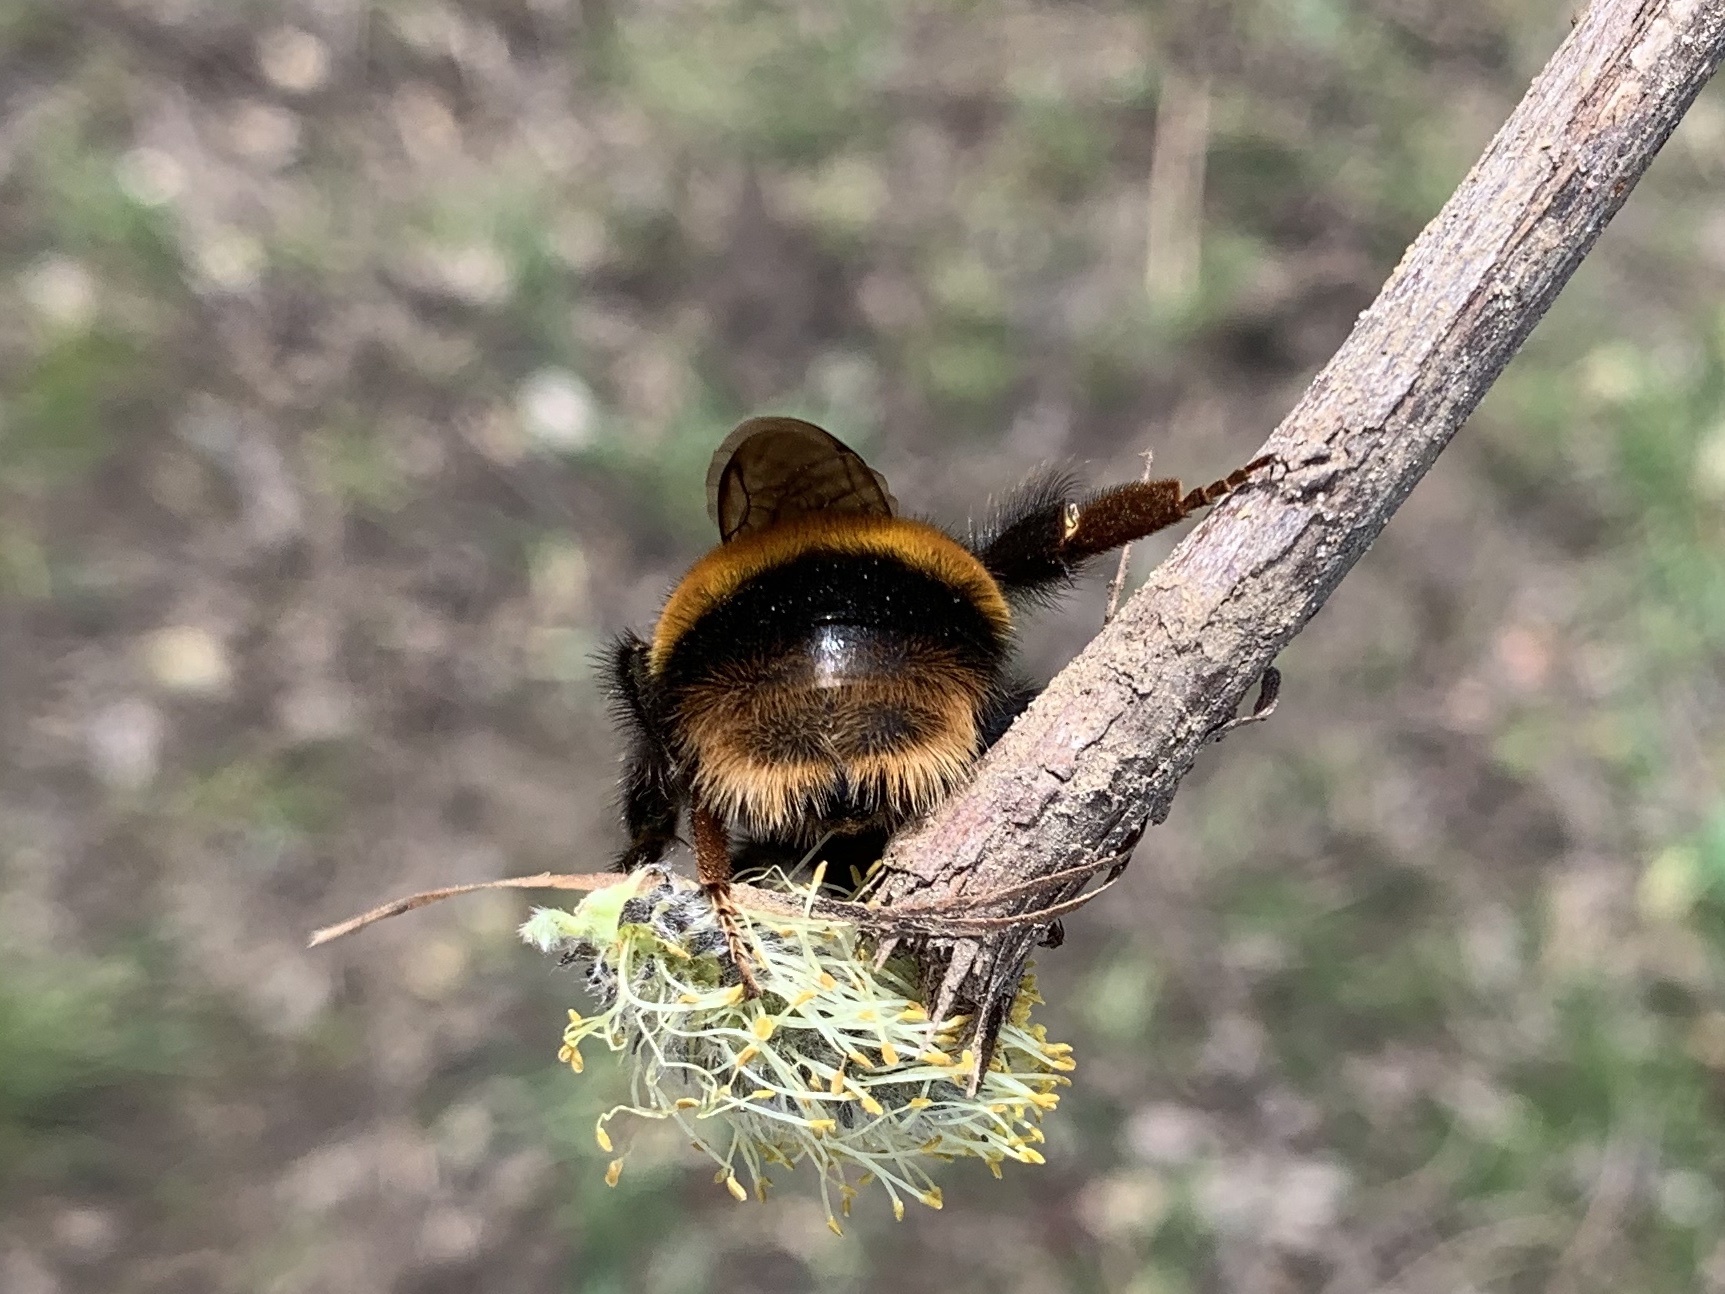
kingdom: Animalia
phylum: Arthropoda
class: Insecta
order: Hymenoptera
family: Apidae
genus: Bombus
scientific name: Bombus terrestris
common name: Buff-tailed bumblebee
